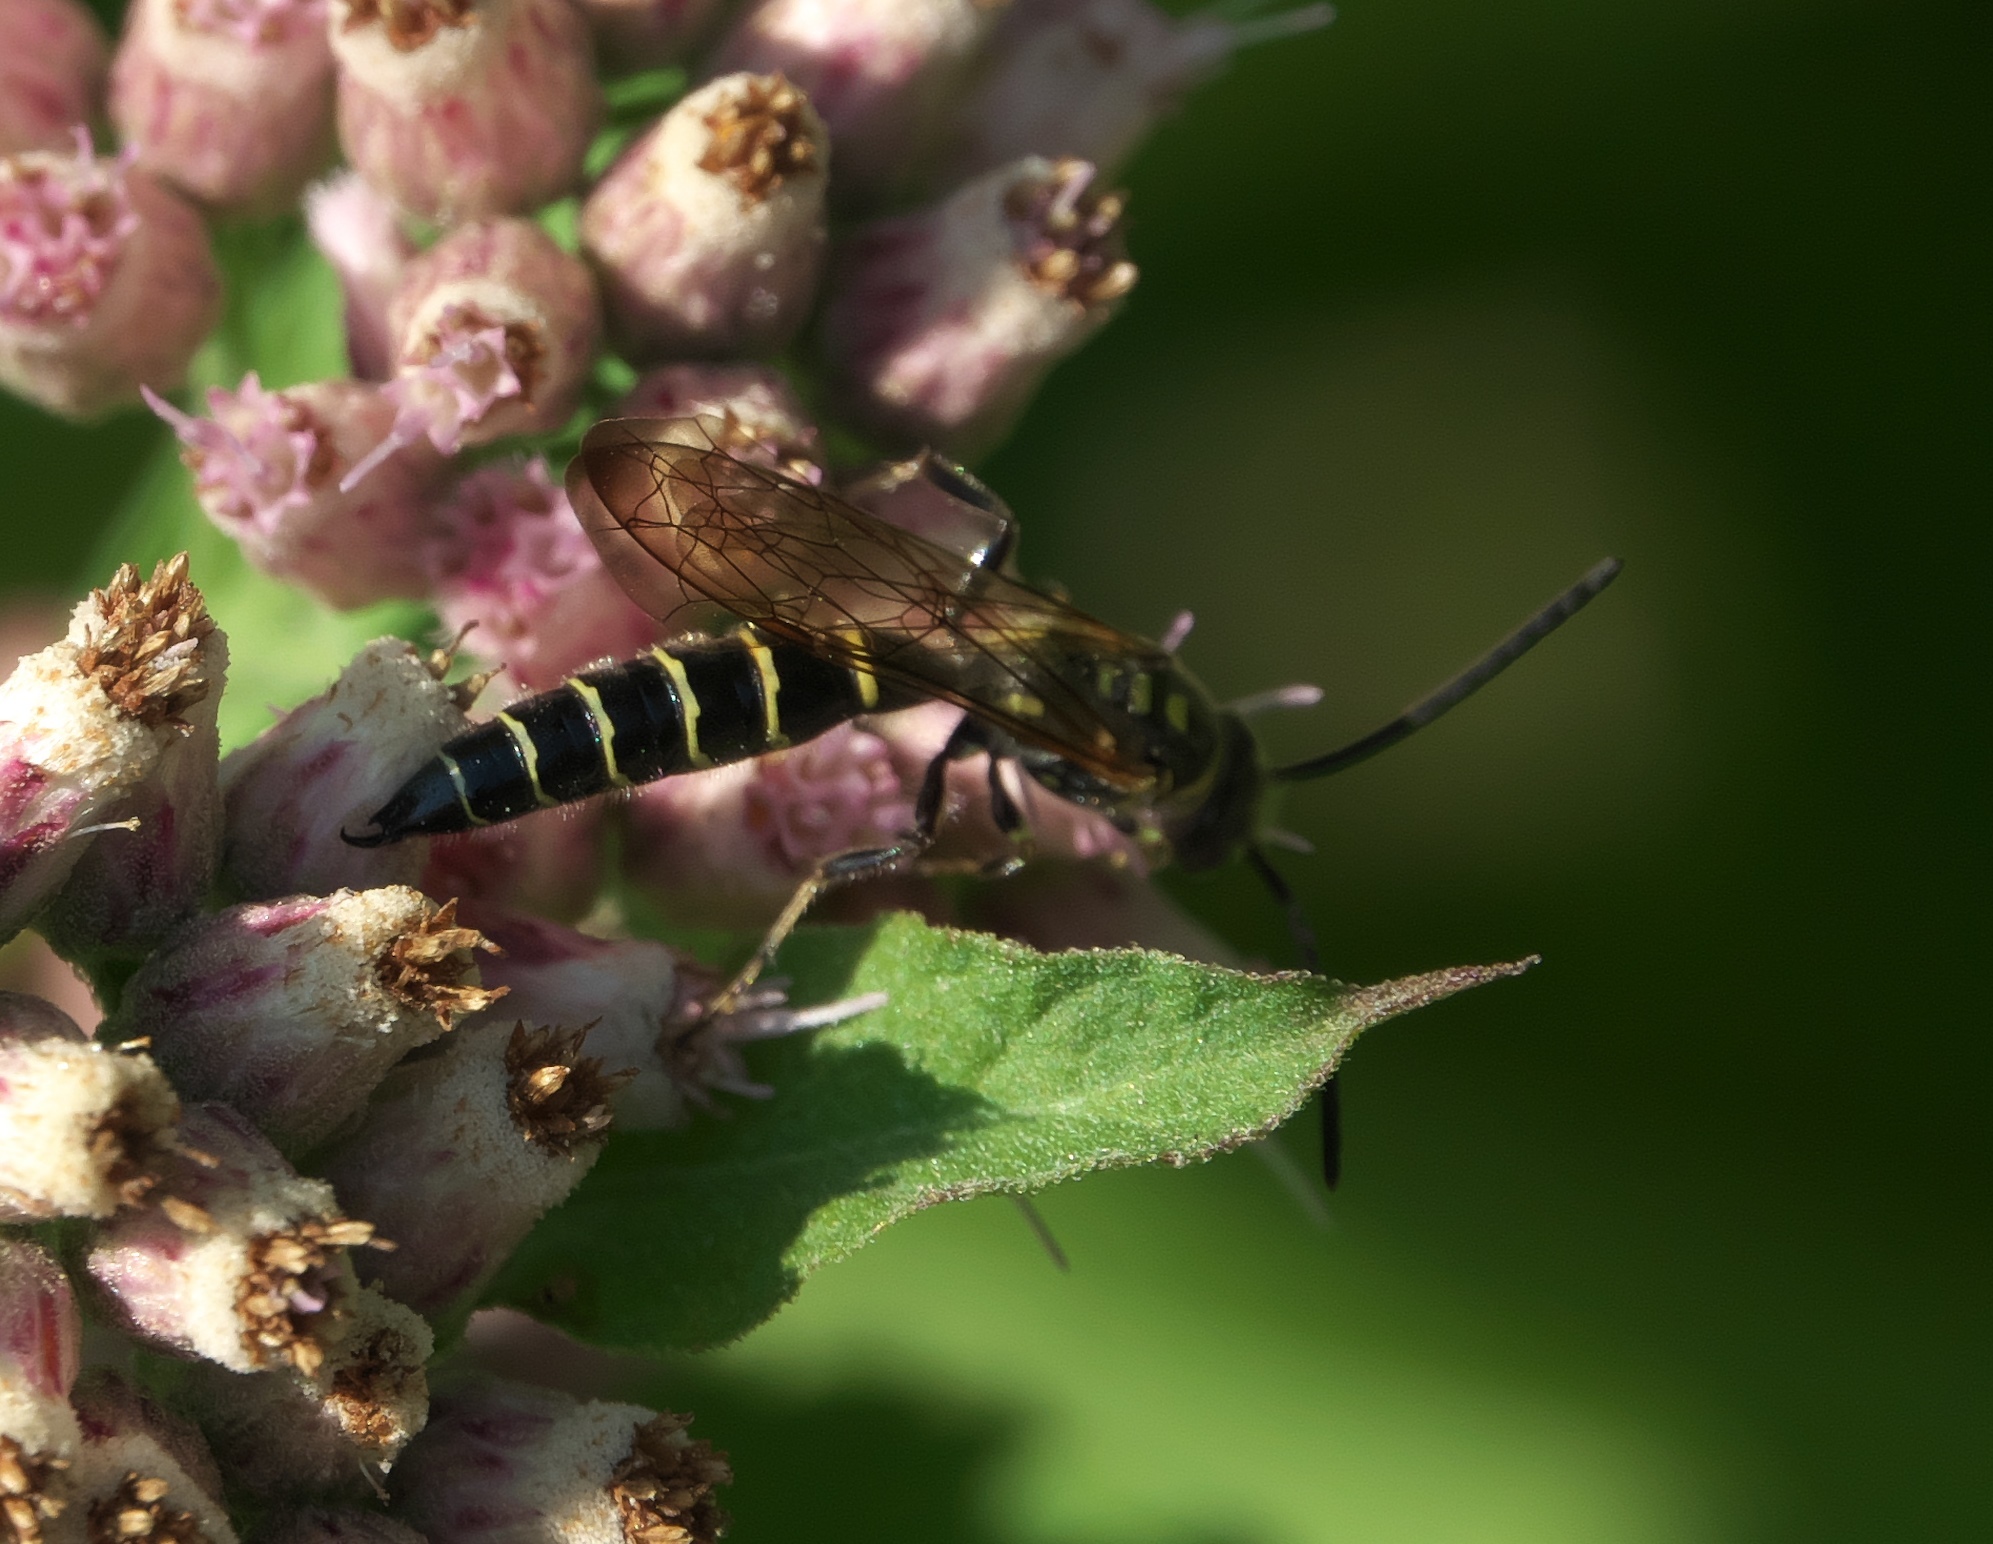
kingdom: Animalia
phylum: Arthropoda
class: Insecta
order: Hymenoptera
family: Tiphiidae
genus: Myzinum
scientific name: Myzinum
